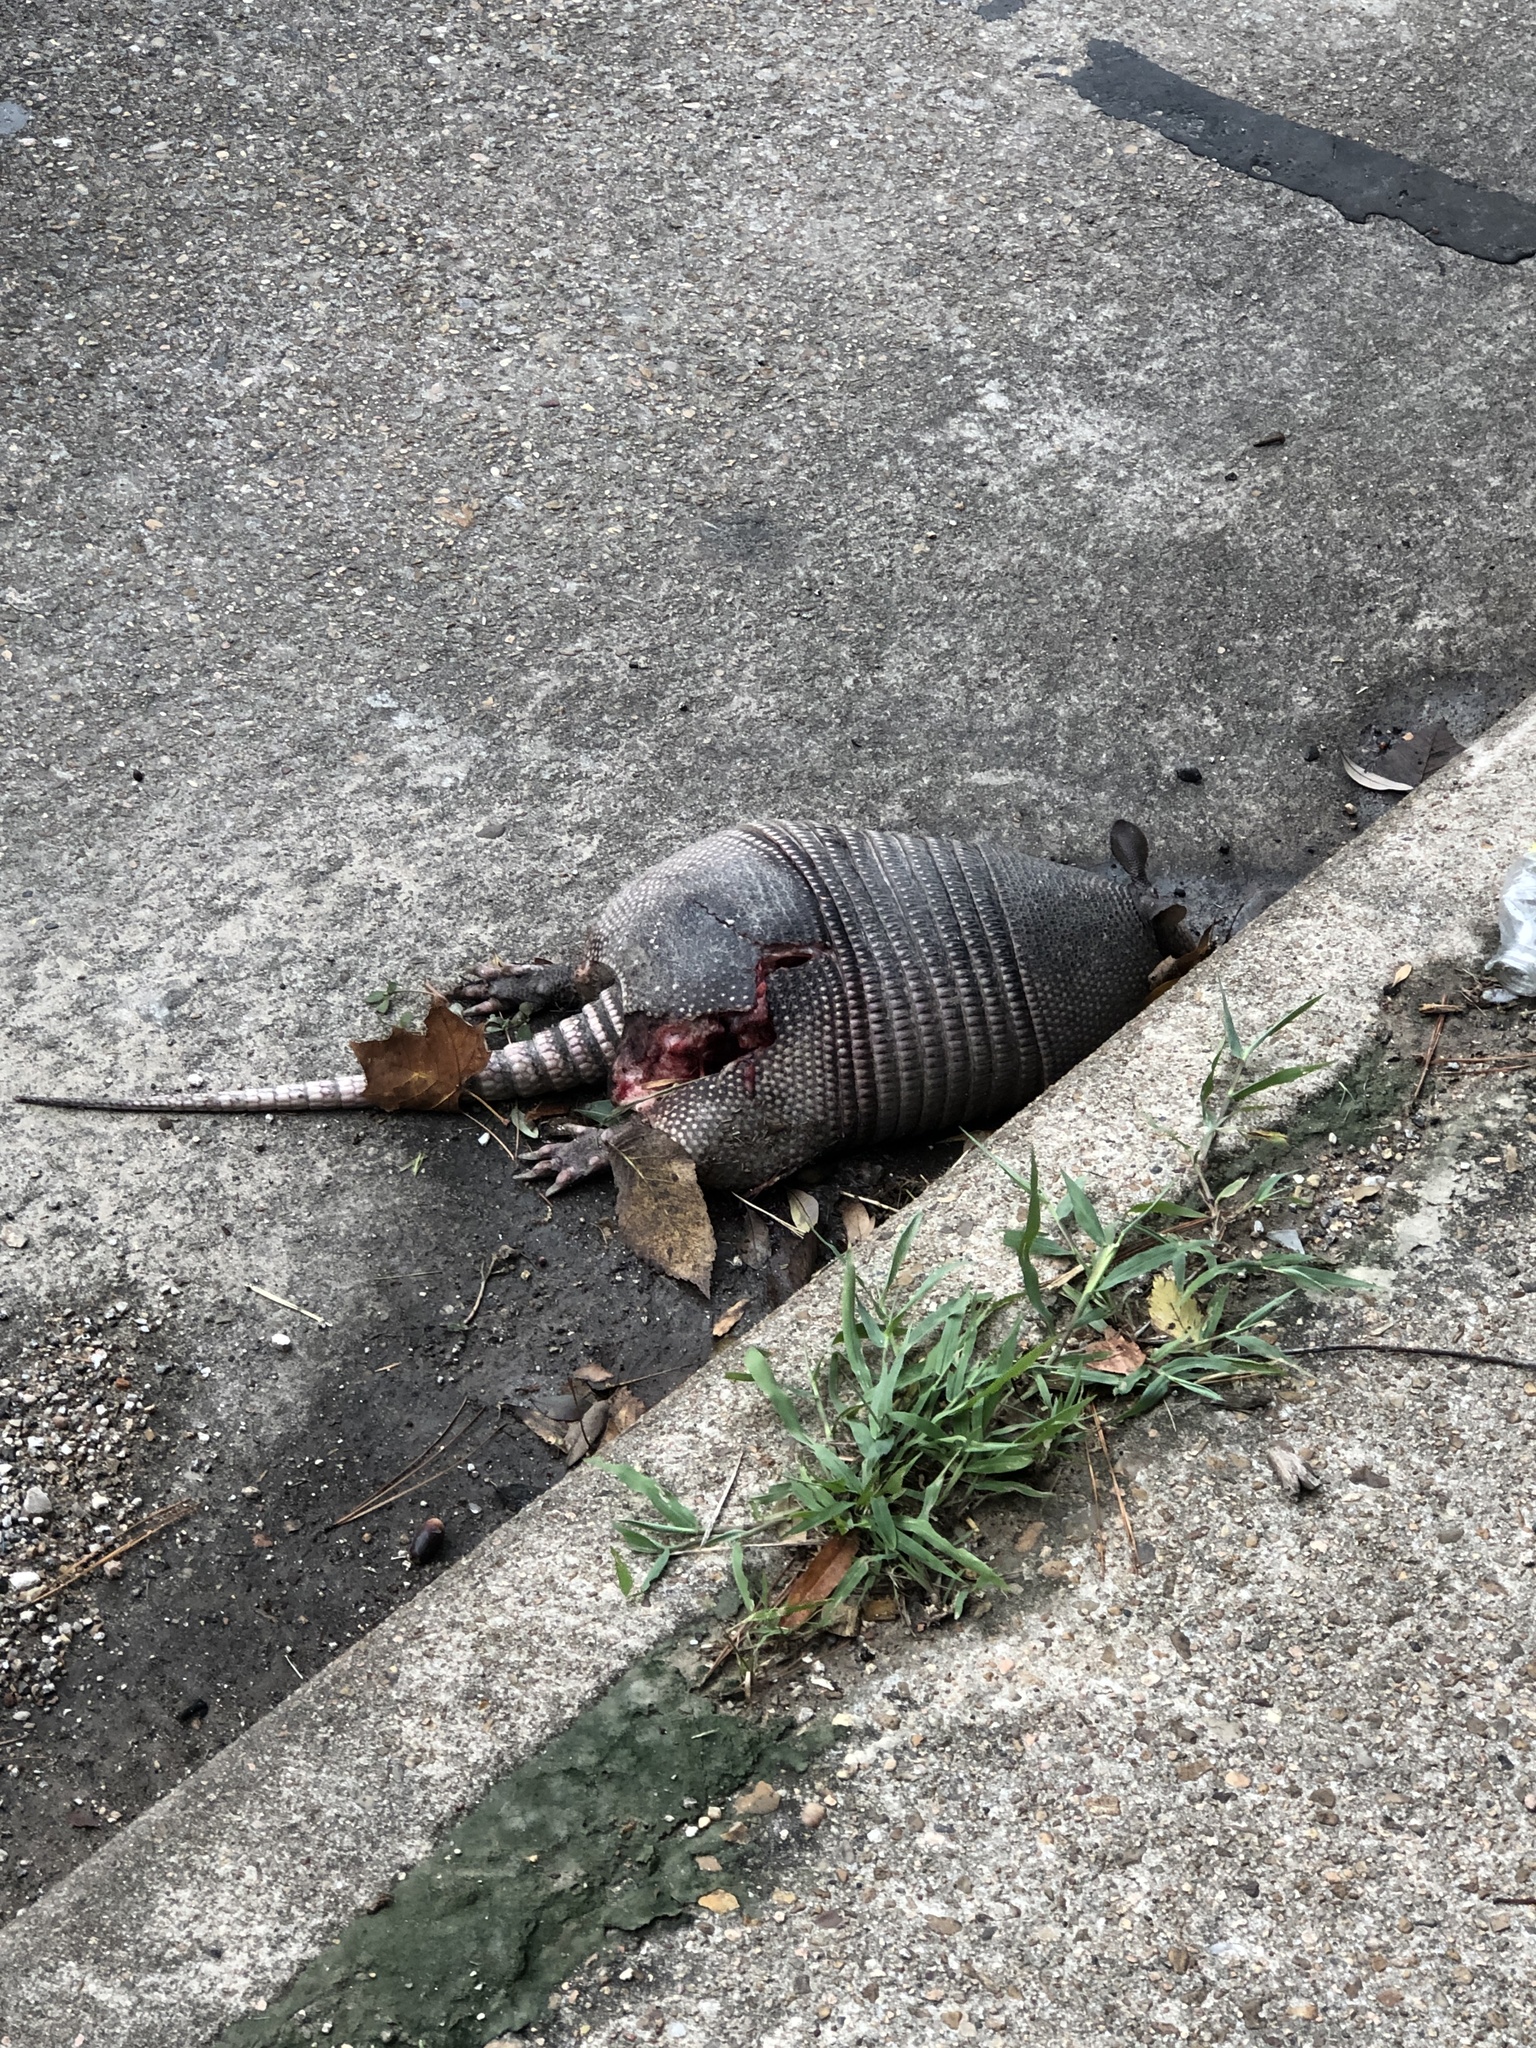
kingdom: Animalia
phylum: Chordata
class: Mammalia
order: Cingulata
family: Dasypodidae
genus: Dasypus
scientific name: Dasypus novemcinctus
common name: Nine-banded armadillo
